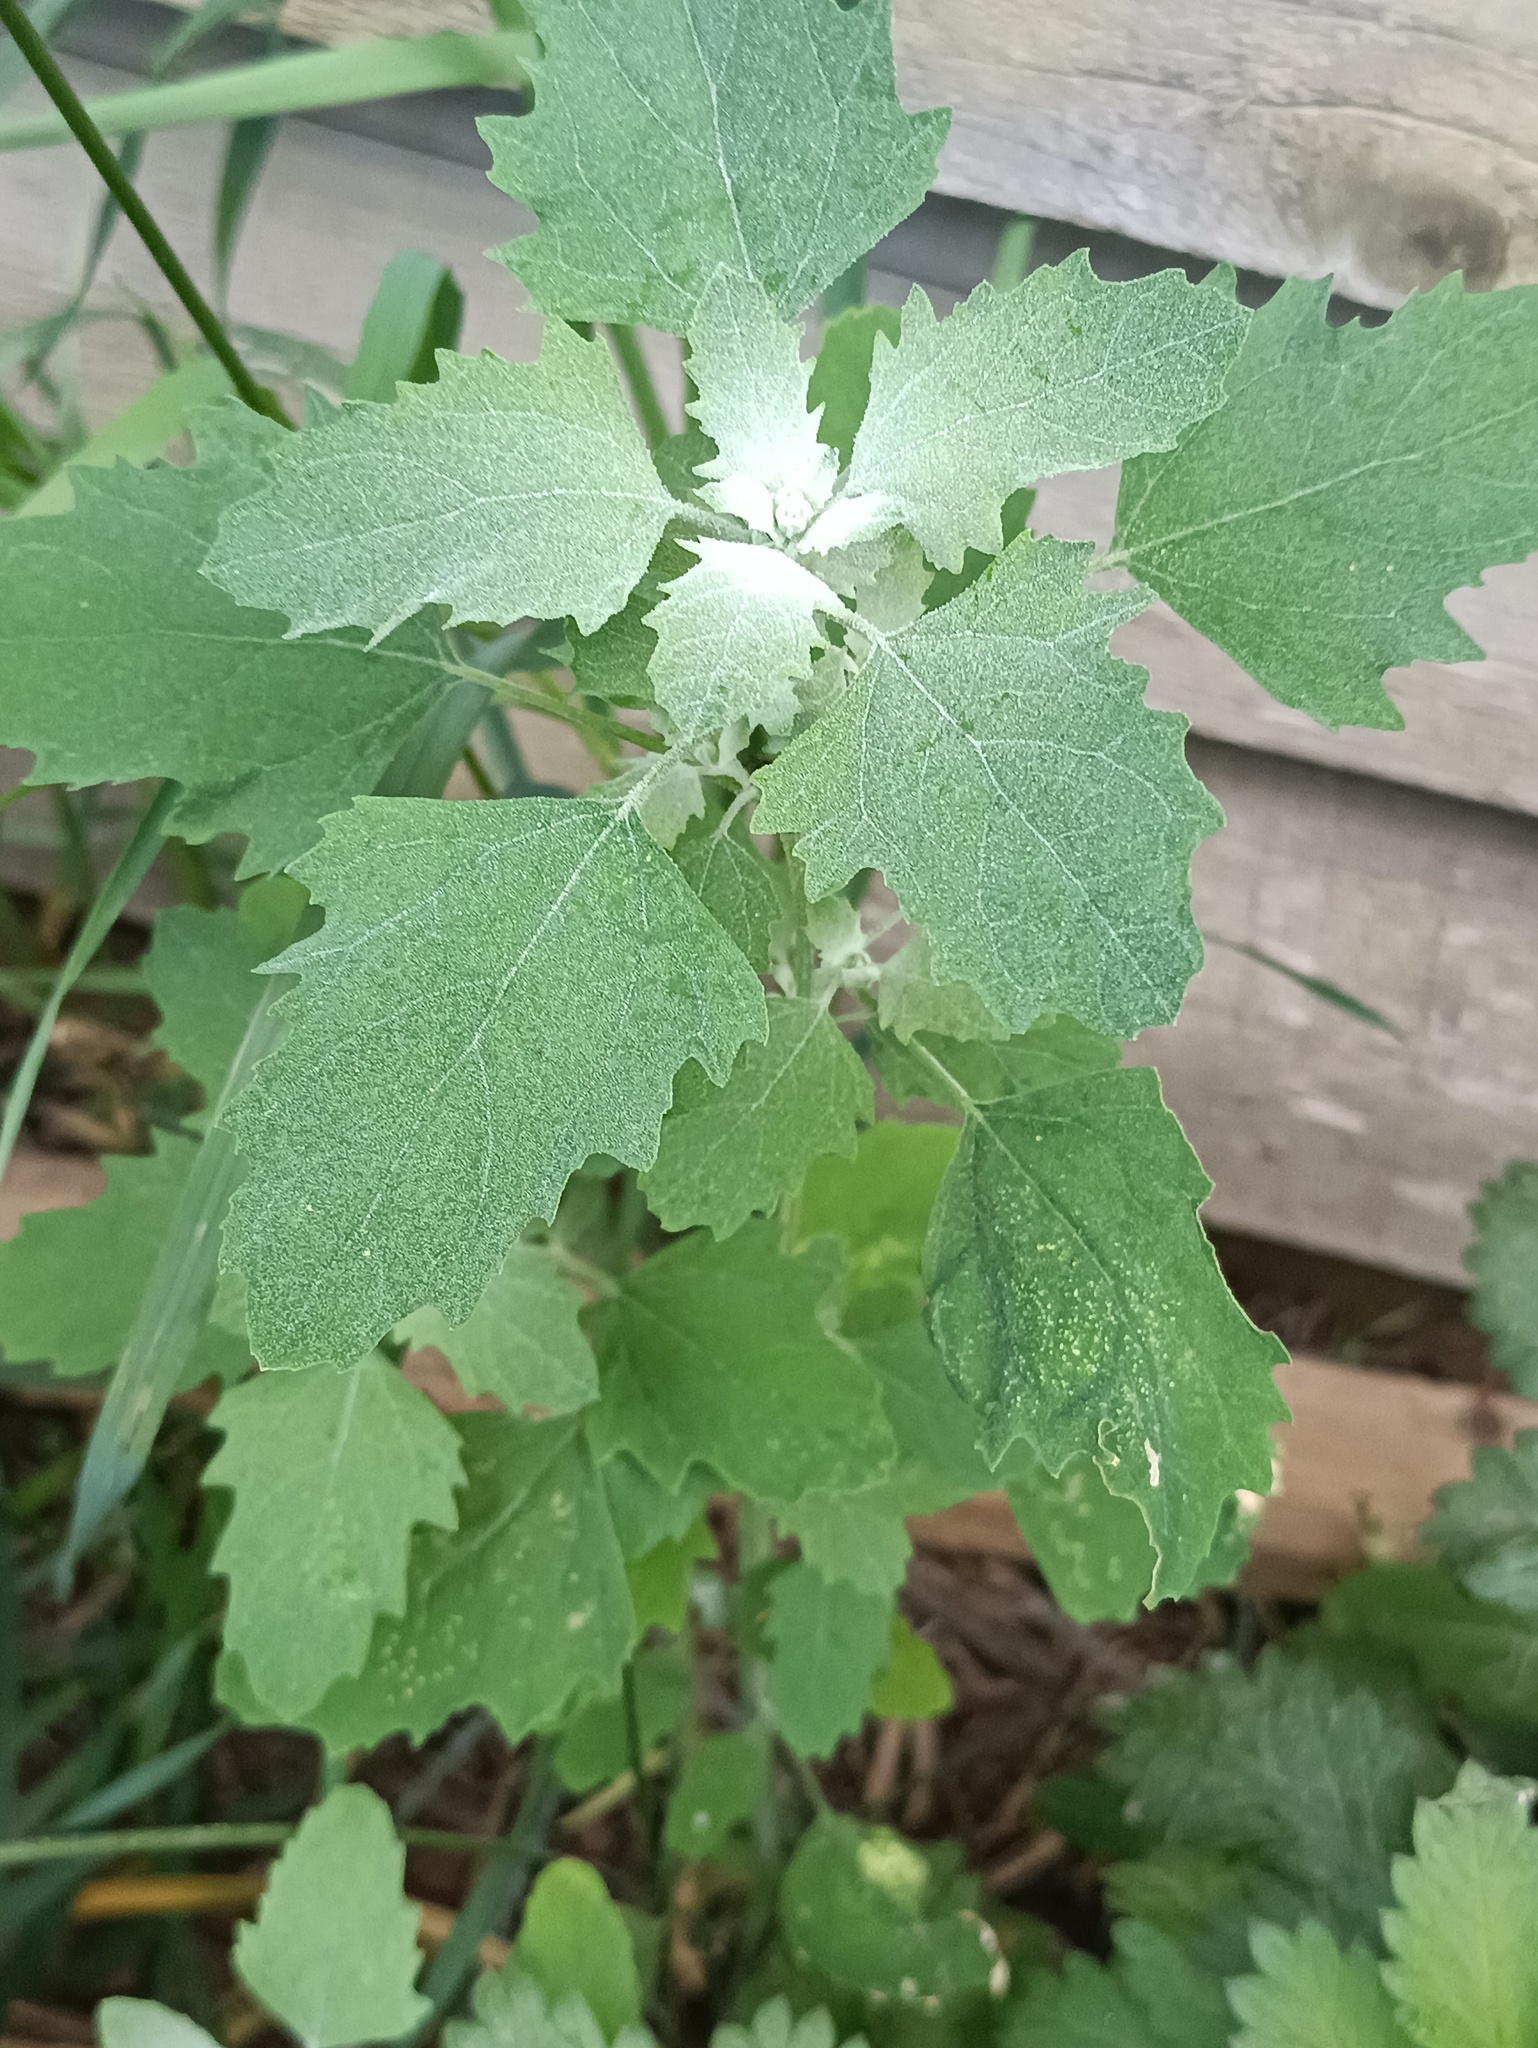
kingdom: Plantae
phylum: Tracheophyta
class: Magnoliopsida
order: Caryophyllales
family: Amaranthaceae
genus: Chenopodium
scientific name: Chenopodium album
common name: Fat-hen
